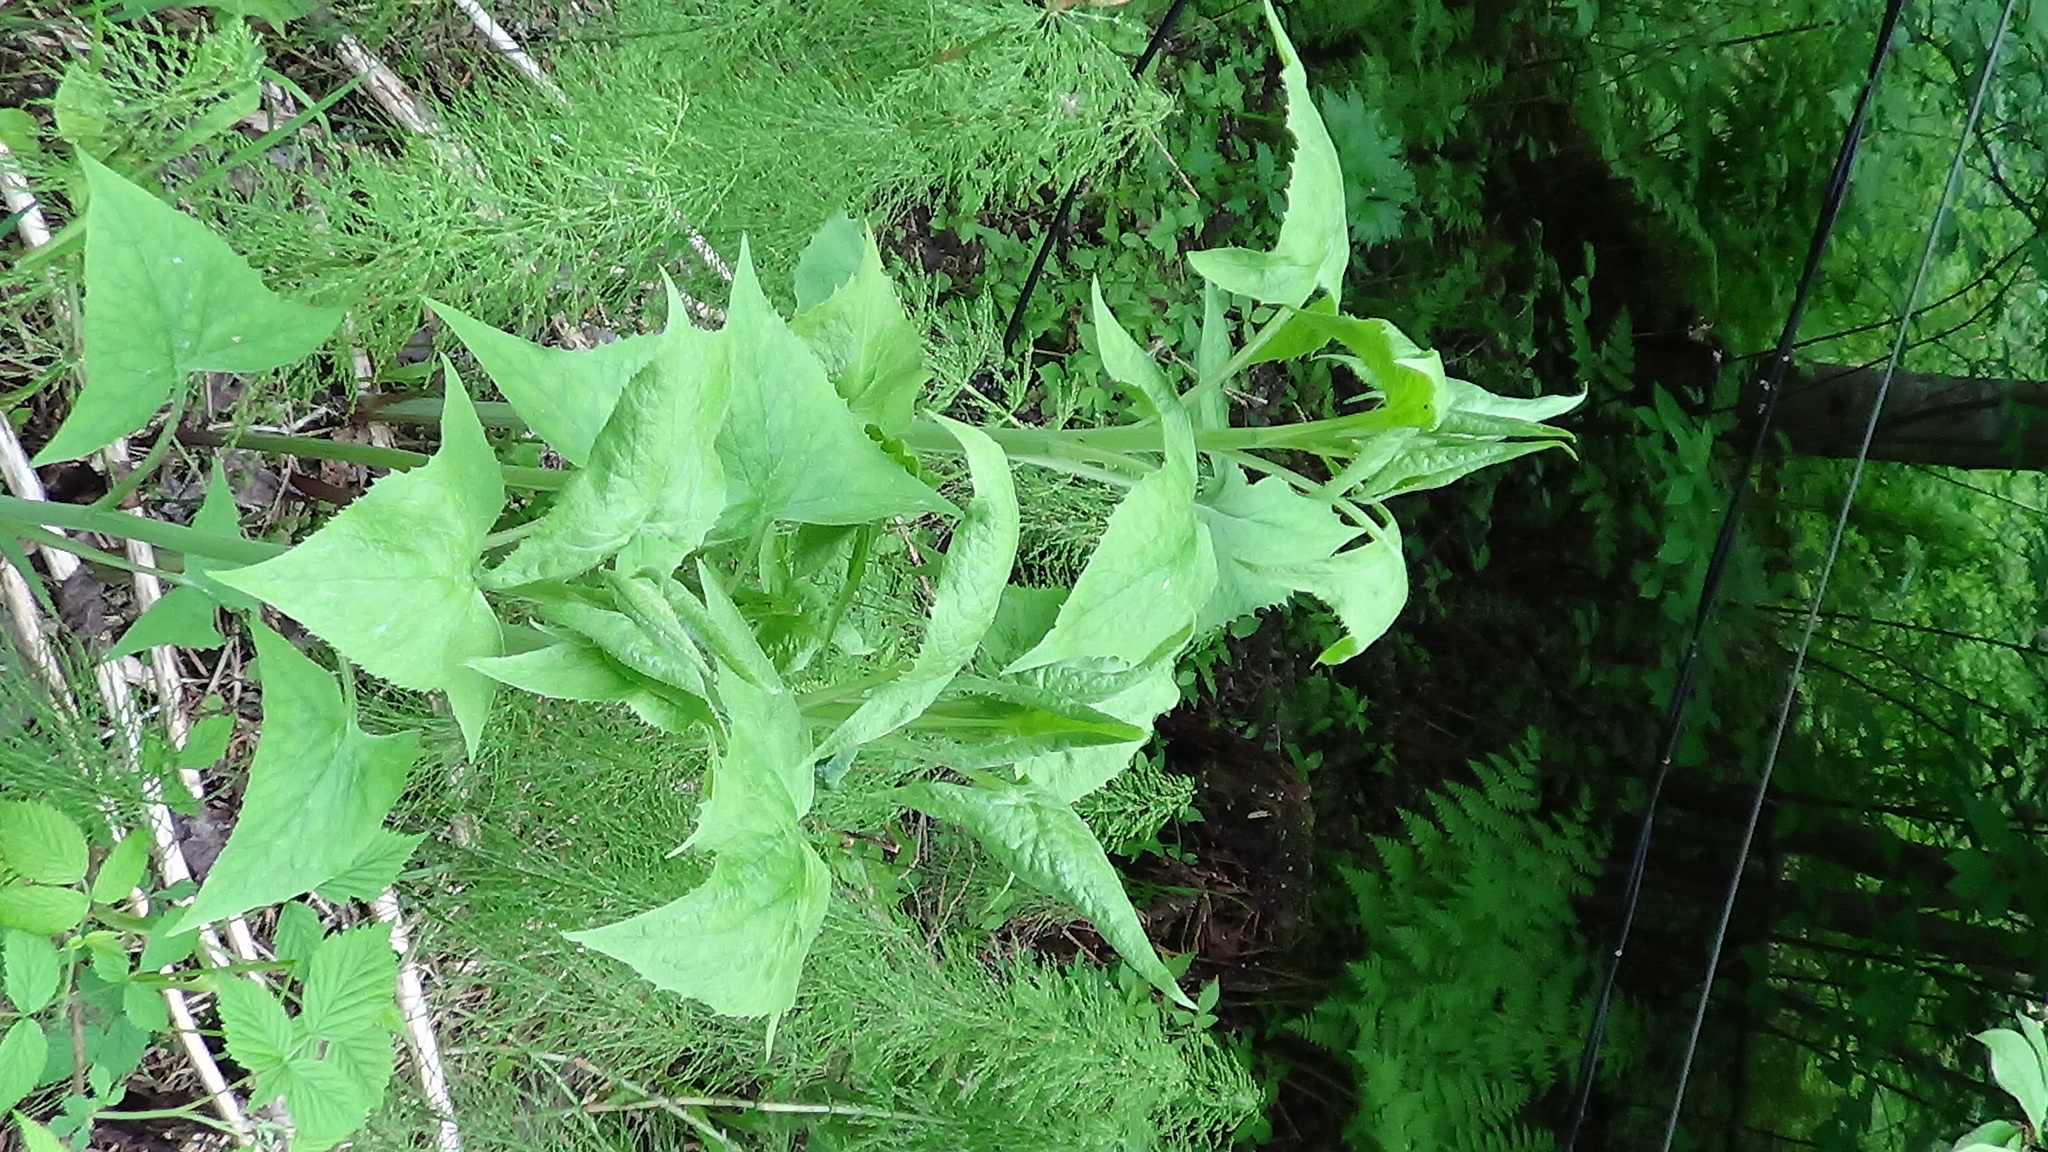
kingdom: Plantae
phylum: Tracheophyta
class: Magnoliopsida
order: Asterales
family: Asteraceae
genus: Parasenecio
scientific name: Parasenecio hastatus
